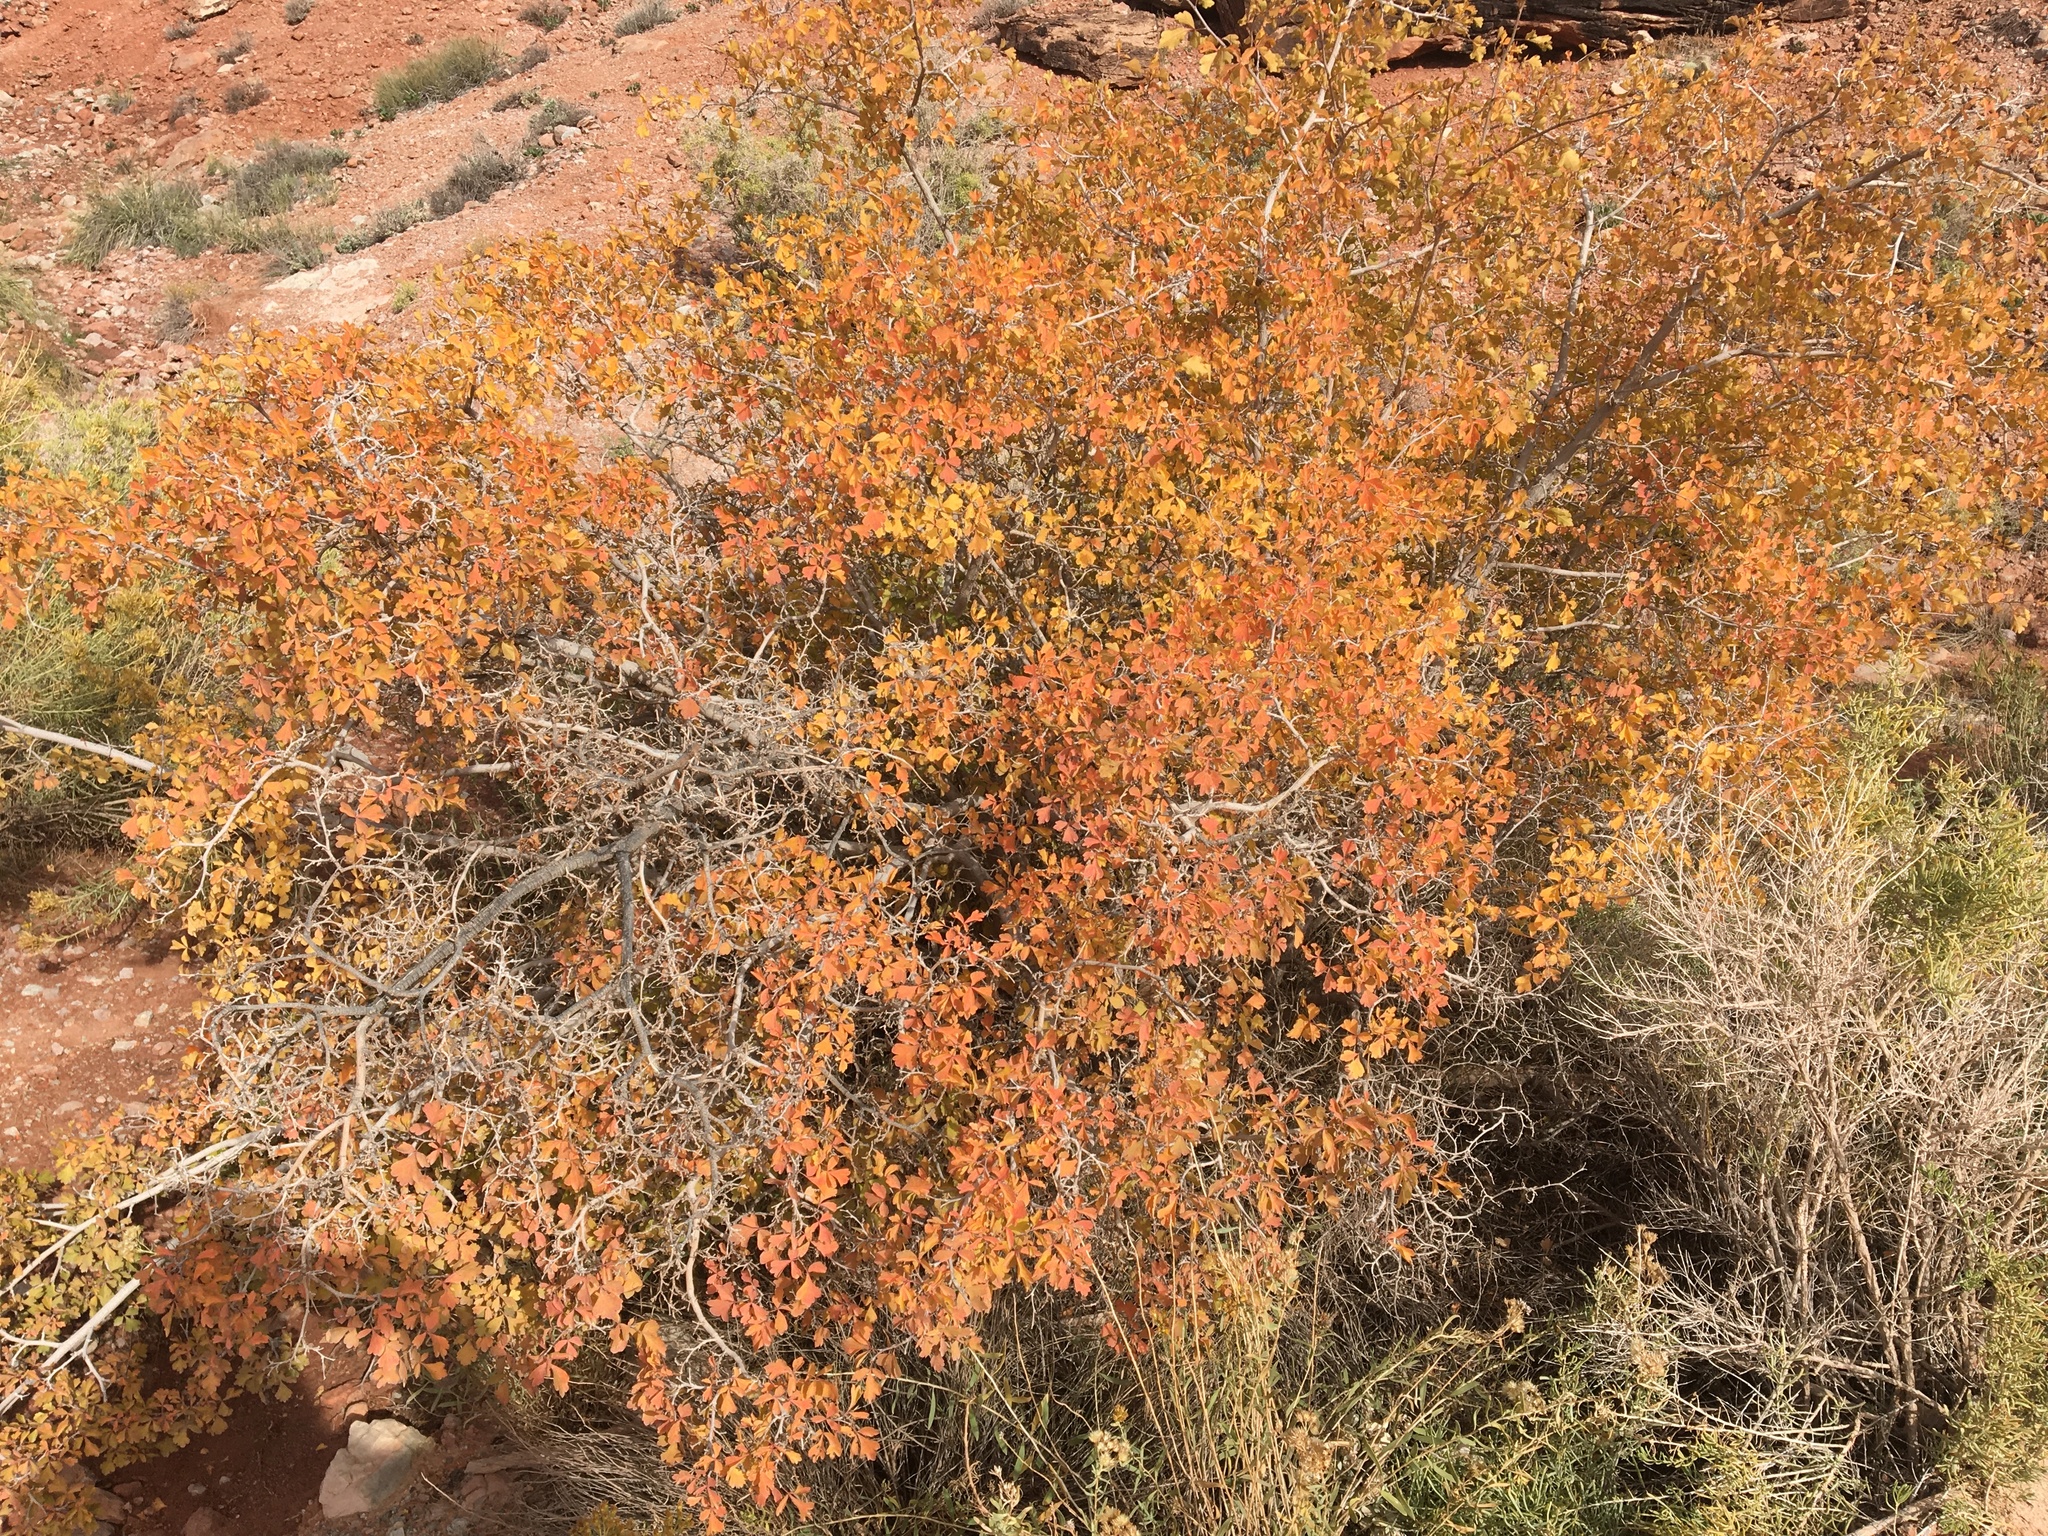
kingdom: Plantae
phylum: Tracheophyta
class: Magnoliopsida
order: Sapindales
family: Anacardiaceae
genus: Rhus
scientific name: Rhus aromatica
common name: Aromatic sumac
